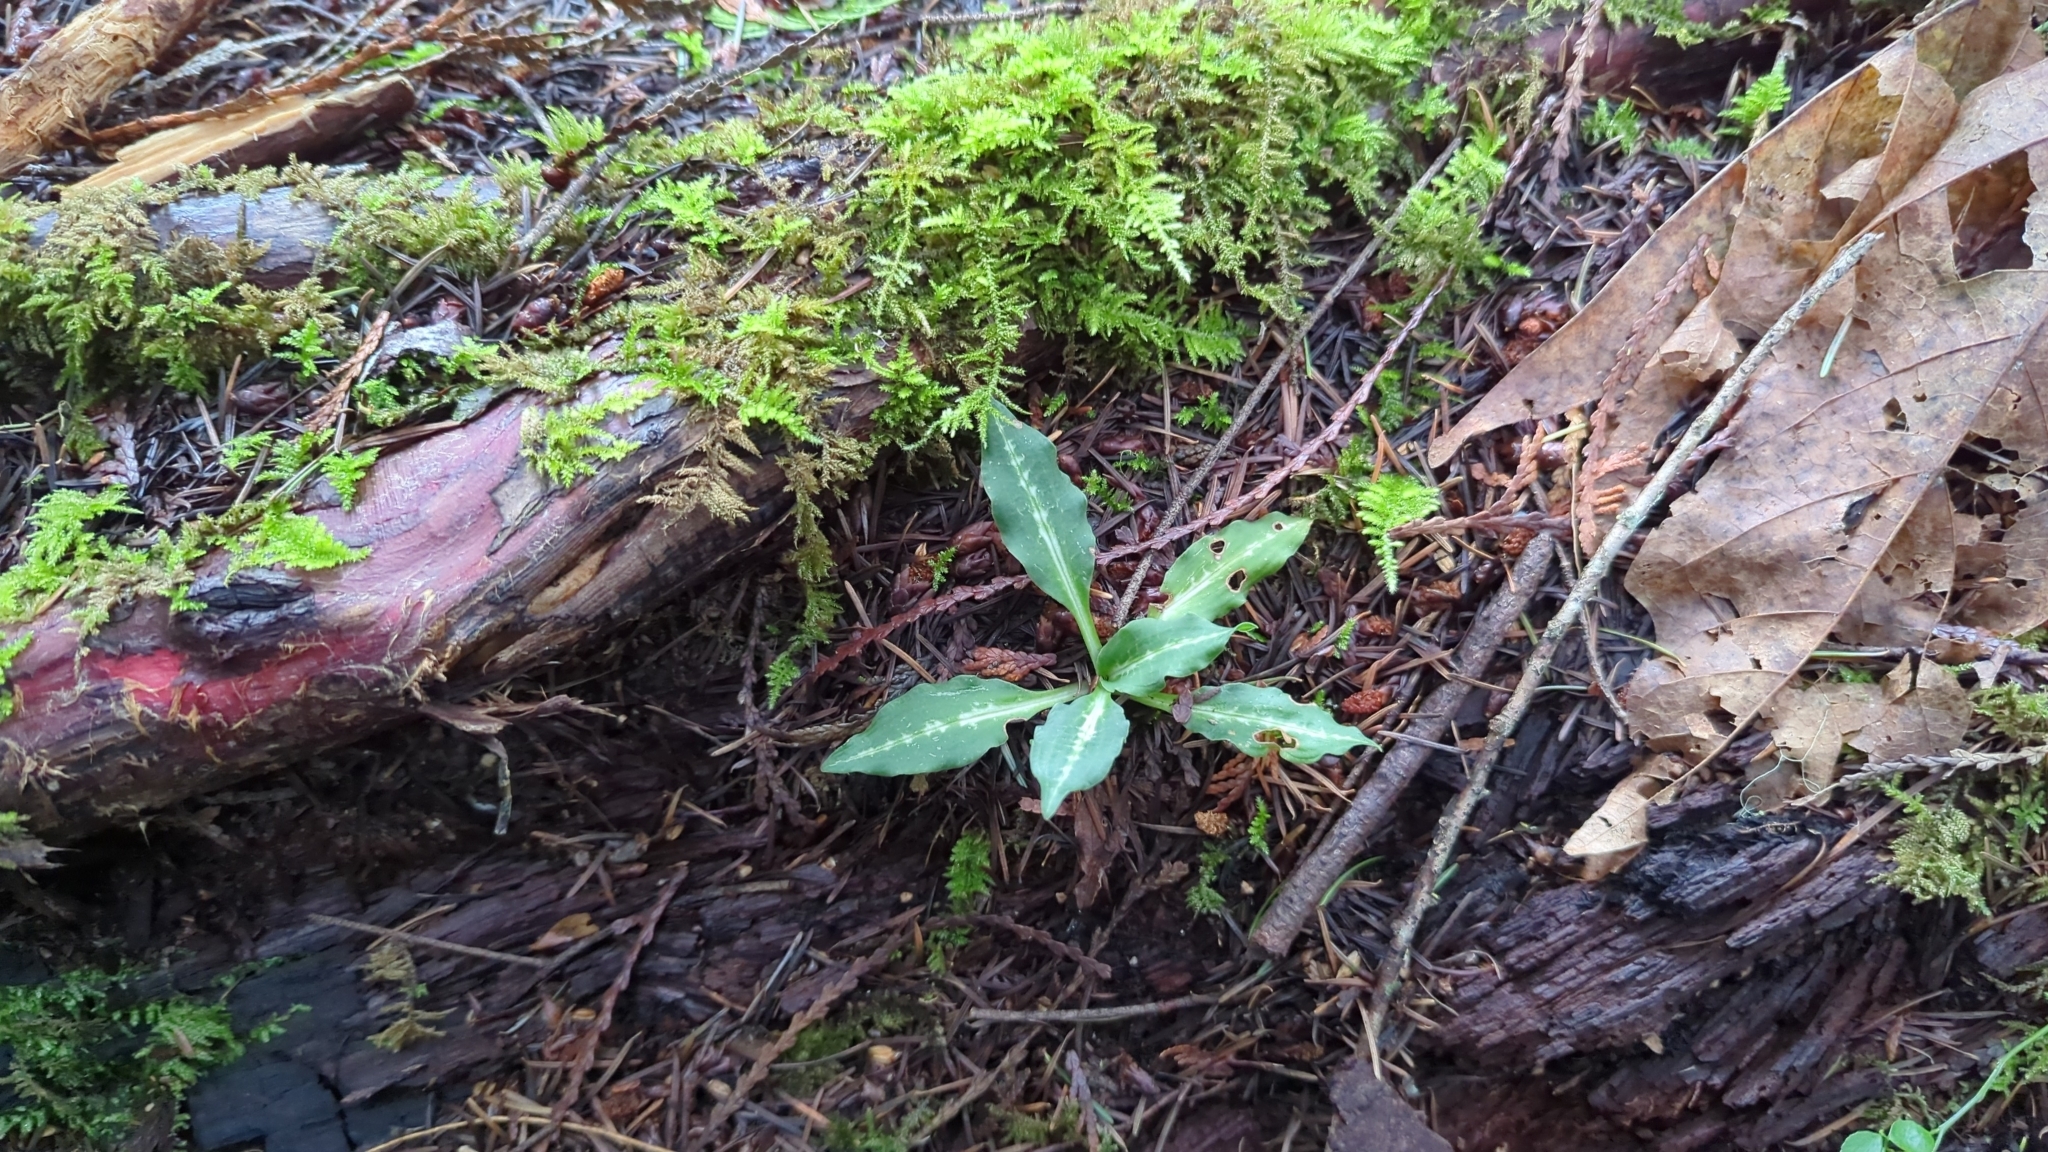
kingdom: Plantae
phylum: Tracheophyta
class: Liliopsida
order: Asparagales
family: Orchidaceae
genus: Goodyera
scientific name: Goodyera oblongifolia
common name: Giant rattlesnake-plantain
